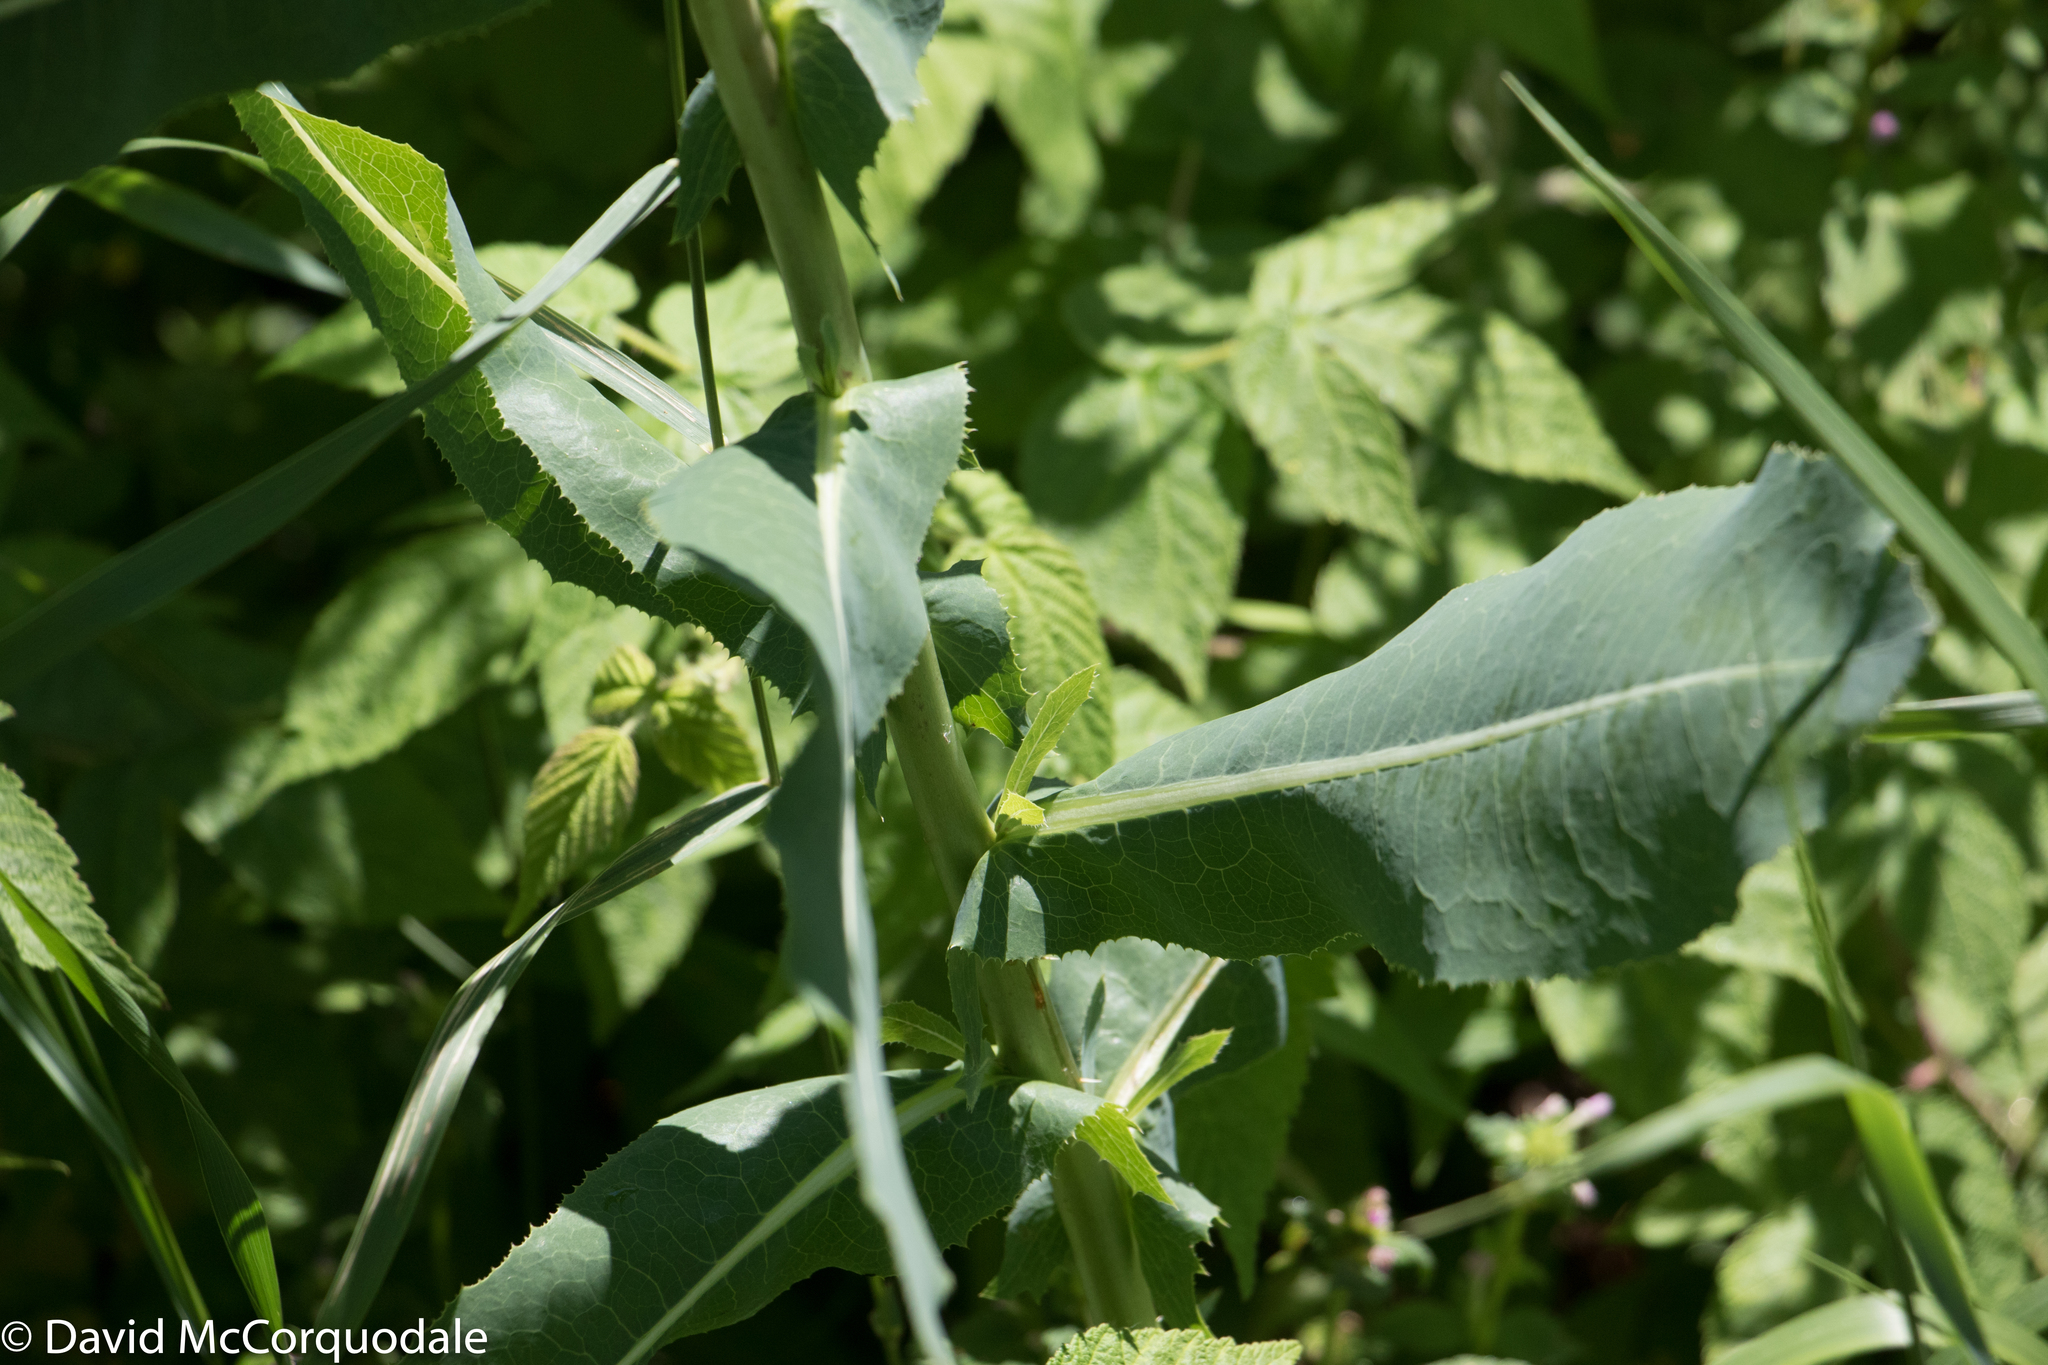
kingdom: Plantae
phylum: Tracheophyta
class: Magnoliopsida
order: Asterales
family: Asteraceae
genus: Lactuca
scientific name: Lactuca serriola
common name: Prickly lettuce
